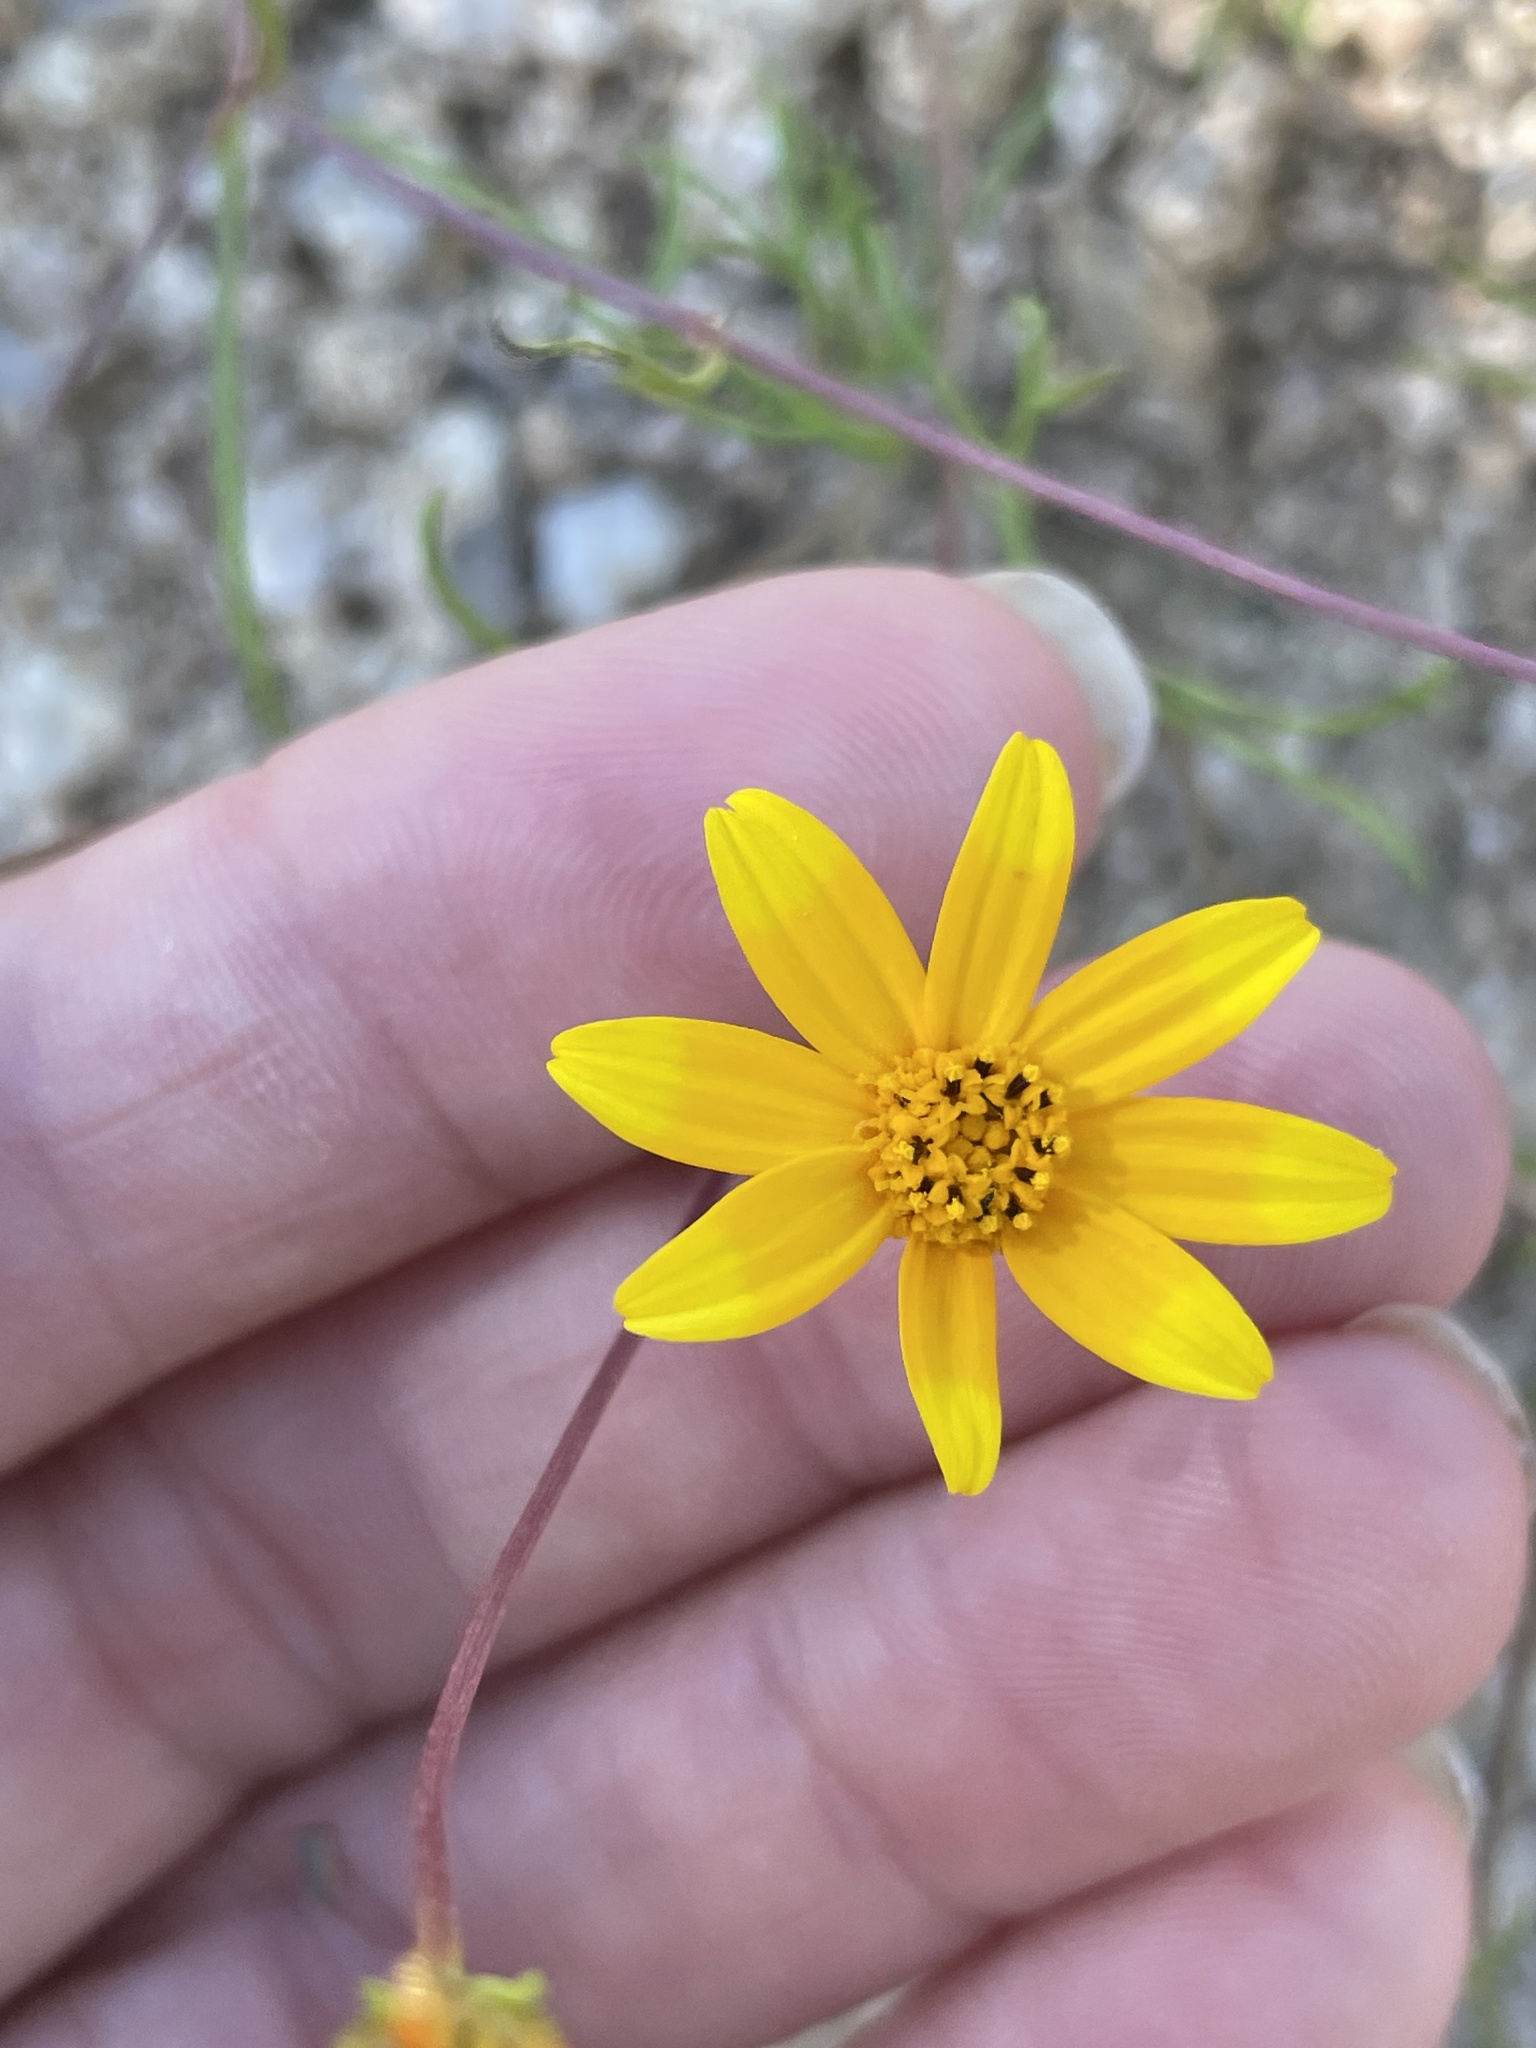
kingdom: Plantae
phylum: Tracheophyta
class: Magnoliopsida
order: Asterales
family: Asteraceae
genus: Bidens
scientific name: Bidens xanti
